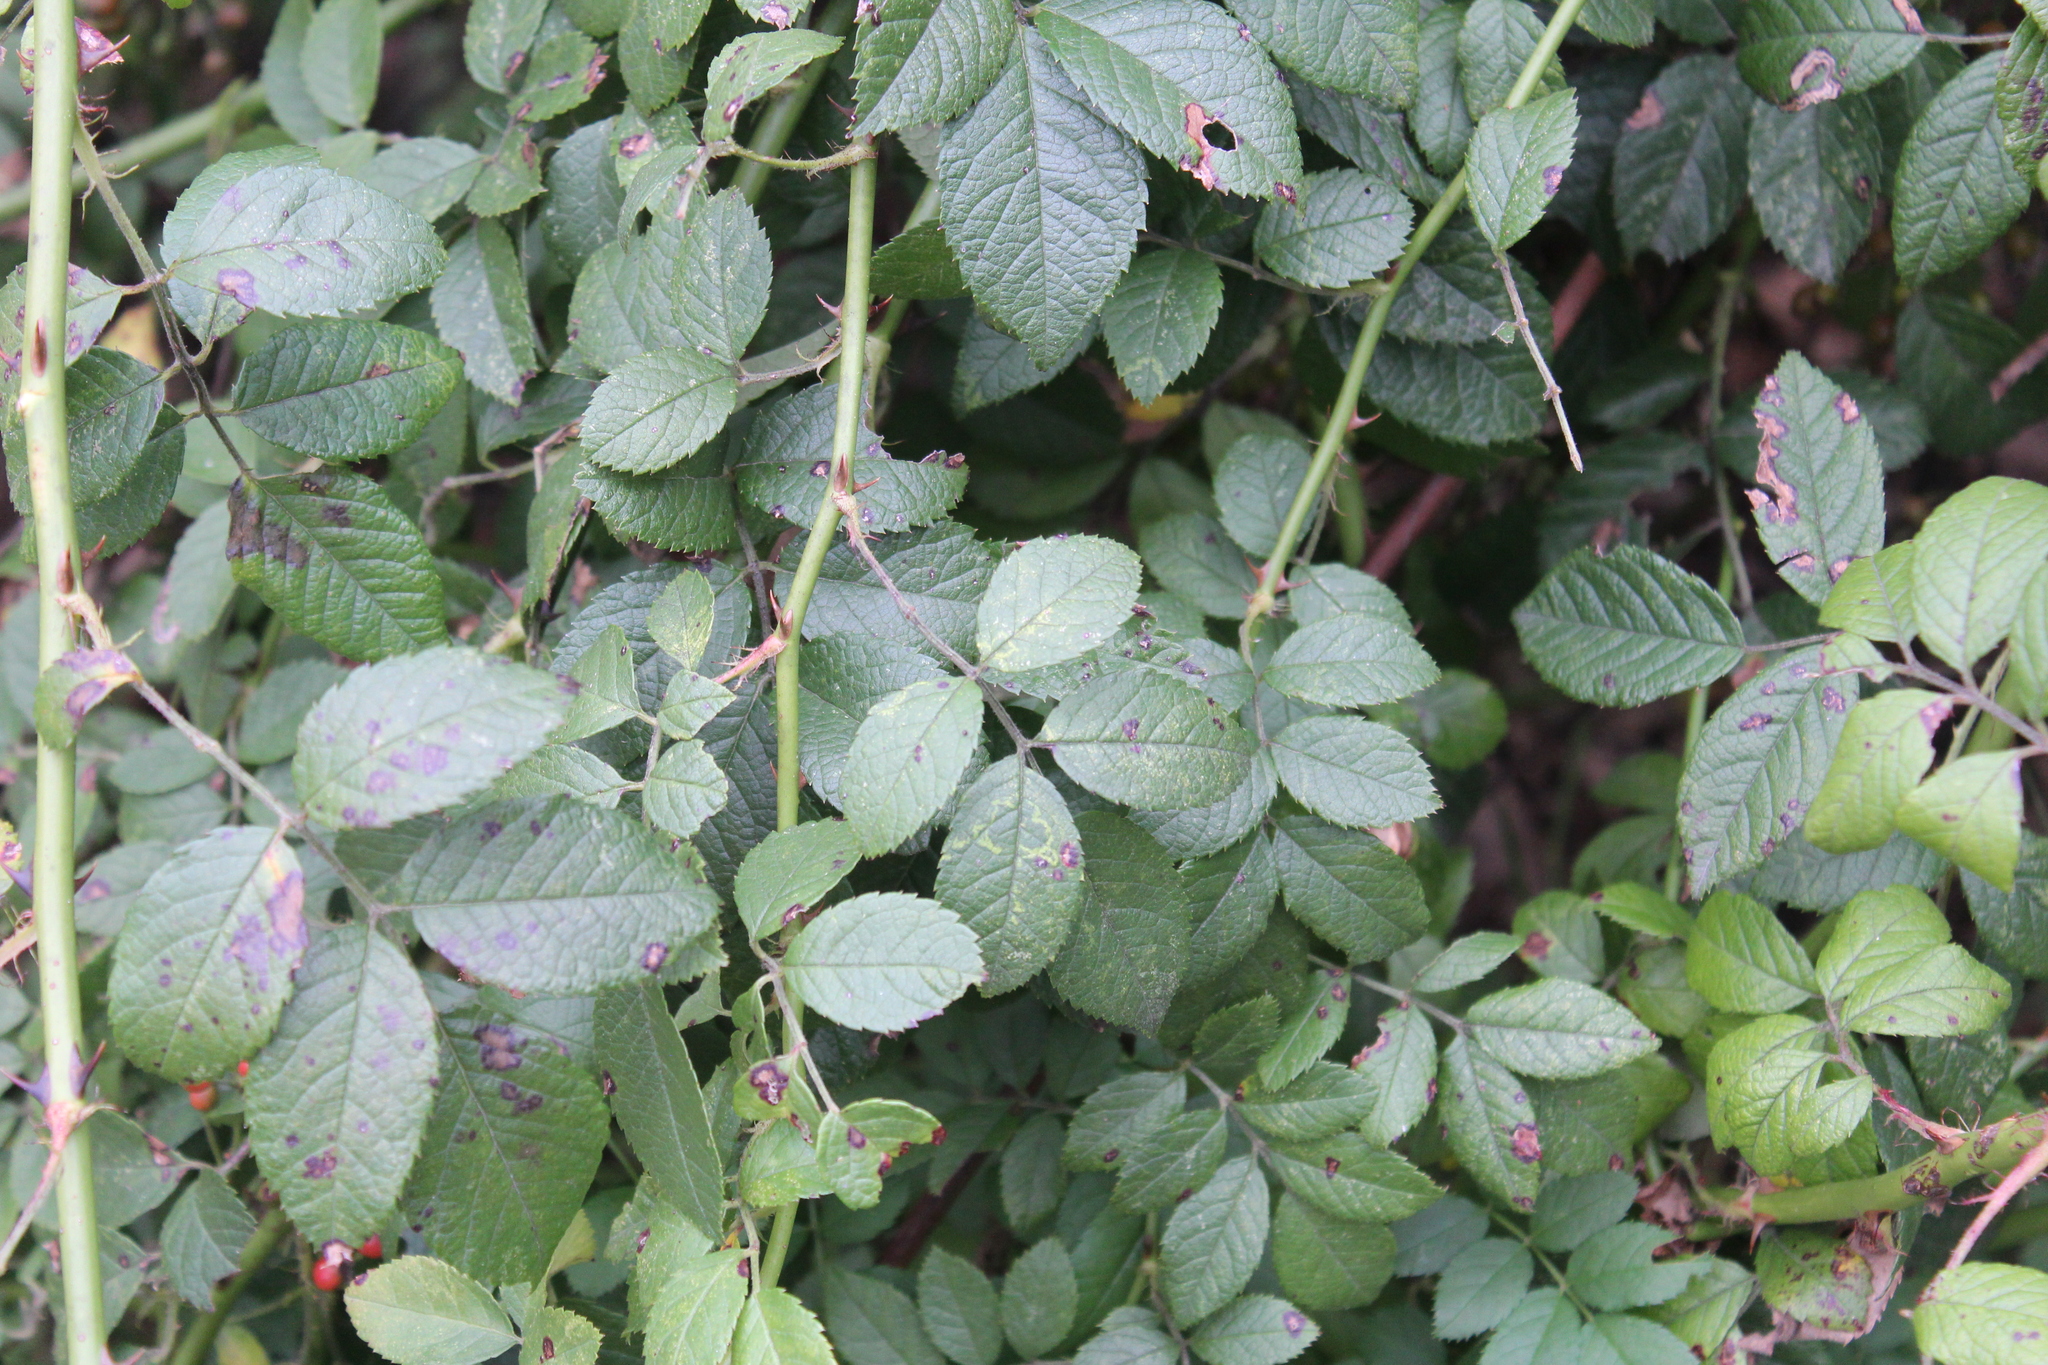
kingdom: Plantae
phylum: Tracheophyta
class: Magnoliopsida
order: Rosales
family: Rosaceae
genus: Rosa
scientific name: Rosa multiflora
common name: Multiflora rose
